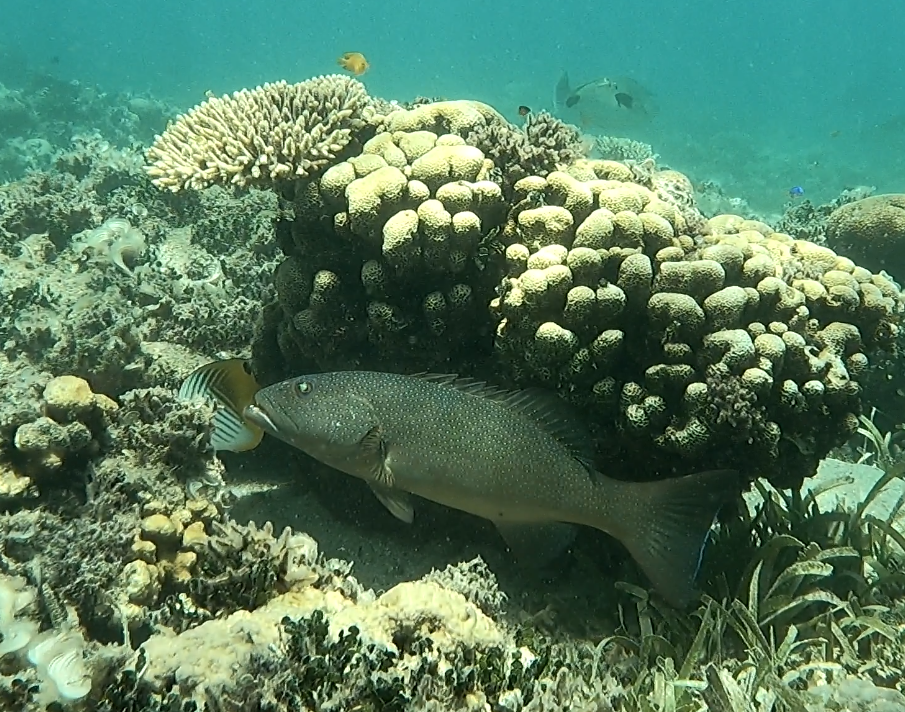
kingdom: Animalia
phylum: Chordata
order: Perciformes
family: Serranidae
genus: Plectropomus
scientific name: Plectropomus leopardus
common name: Coral trout
